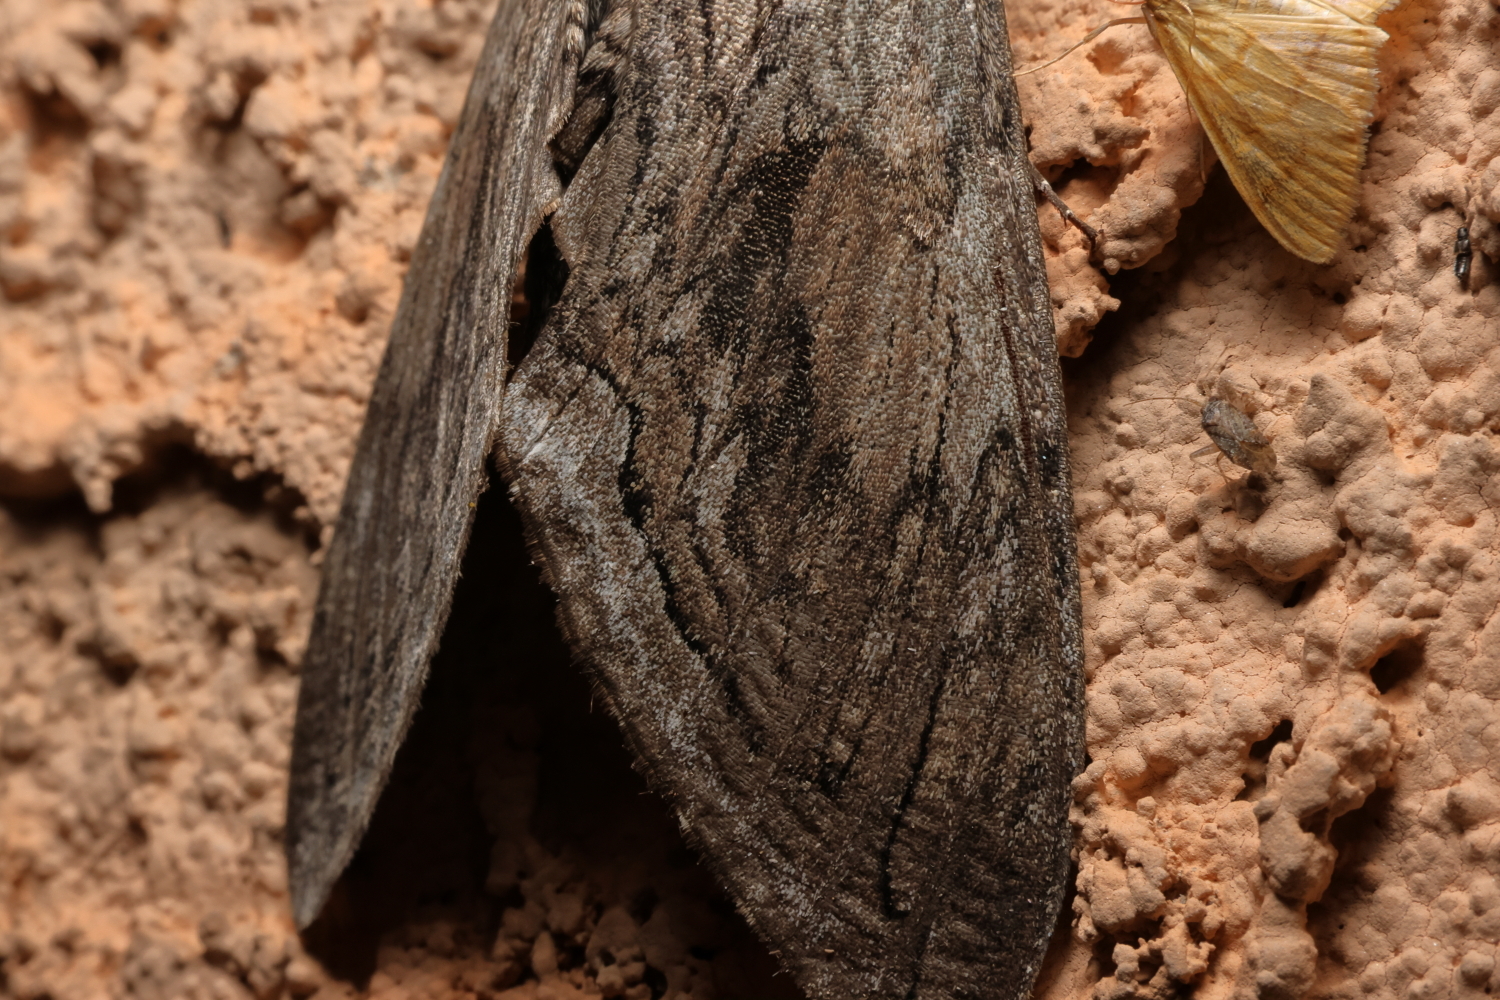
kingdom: Animalia
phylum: Arthropoda
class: Insecta
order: Lepidoptera
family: Sphingidae
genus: Manduca
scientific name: Manduca quinquemaculatus
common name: Five-spotted hawk-moth
